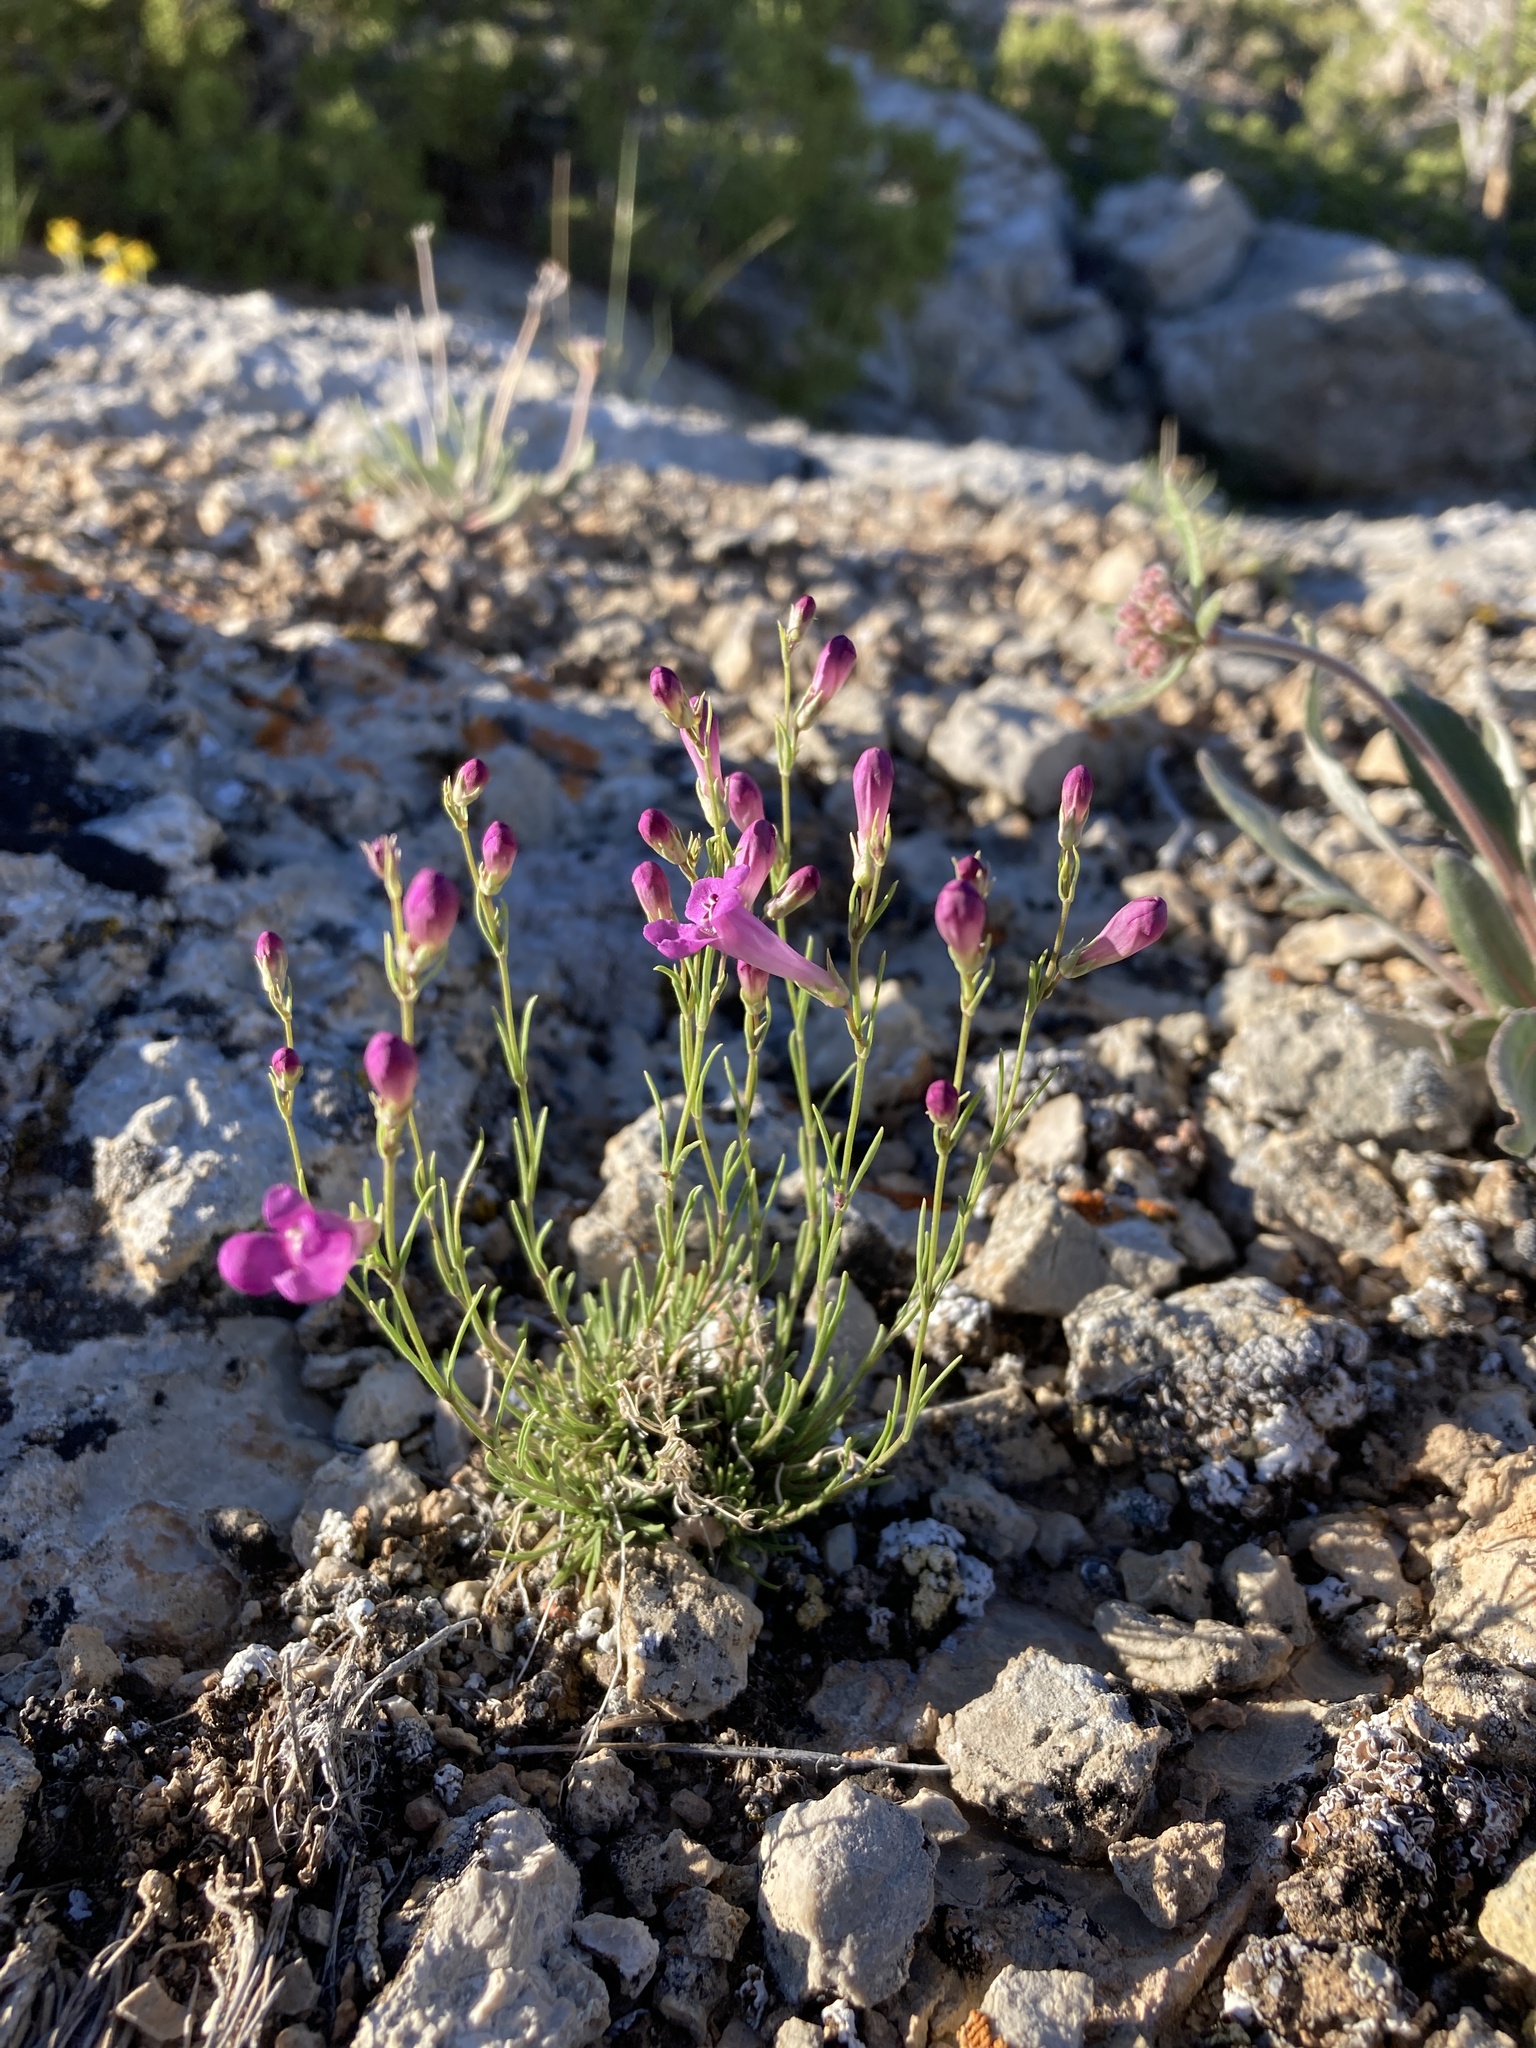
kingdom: Plantae
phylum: Tracheophyta
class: Magnoliopsida
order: Lamiales
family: Plantaginaceae
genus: Penstemon
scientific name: Penstemon laricifolius
